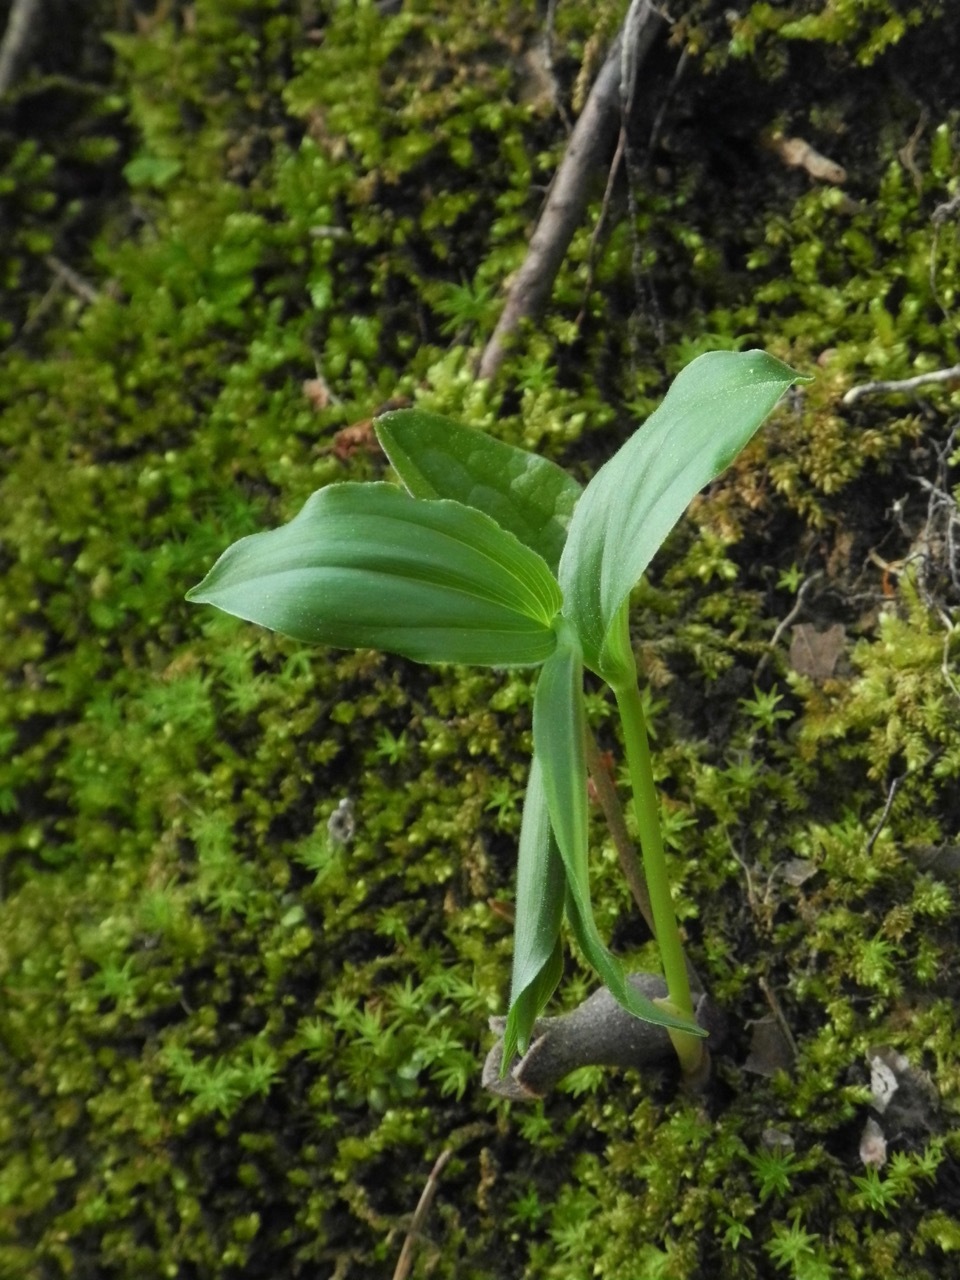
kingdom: Plantae
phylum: Tracheophyta
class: Liliopsida
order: Asparagales
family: Asparagaceae
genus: Maianthemum
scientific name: Maianthemum racemosum
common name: False spikenard
